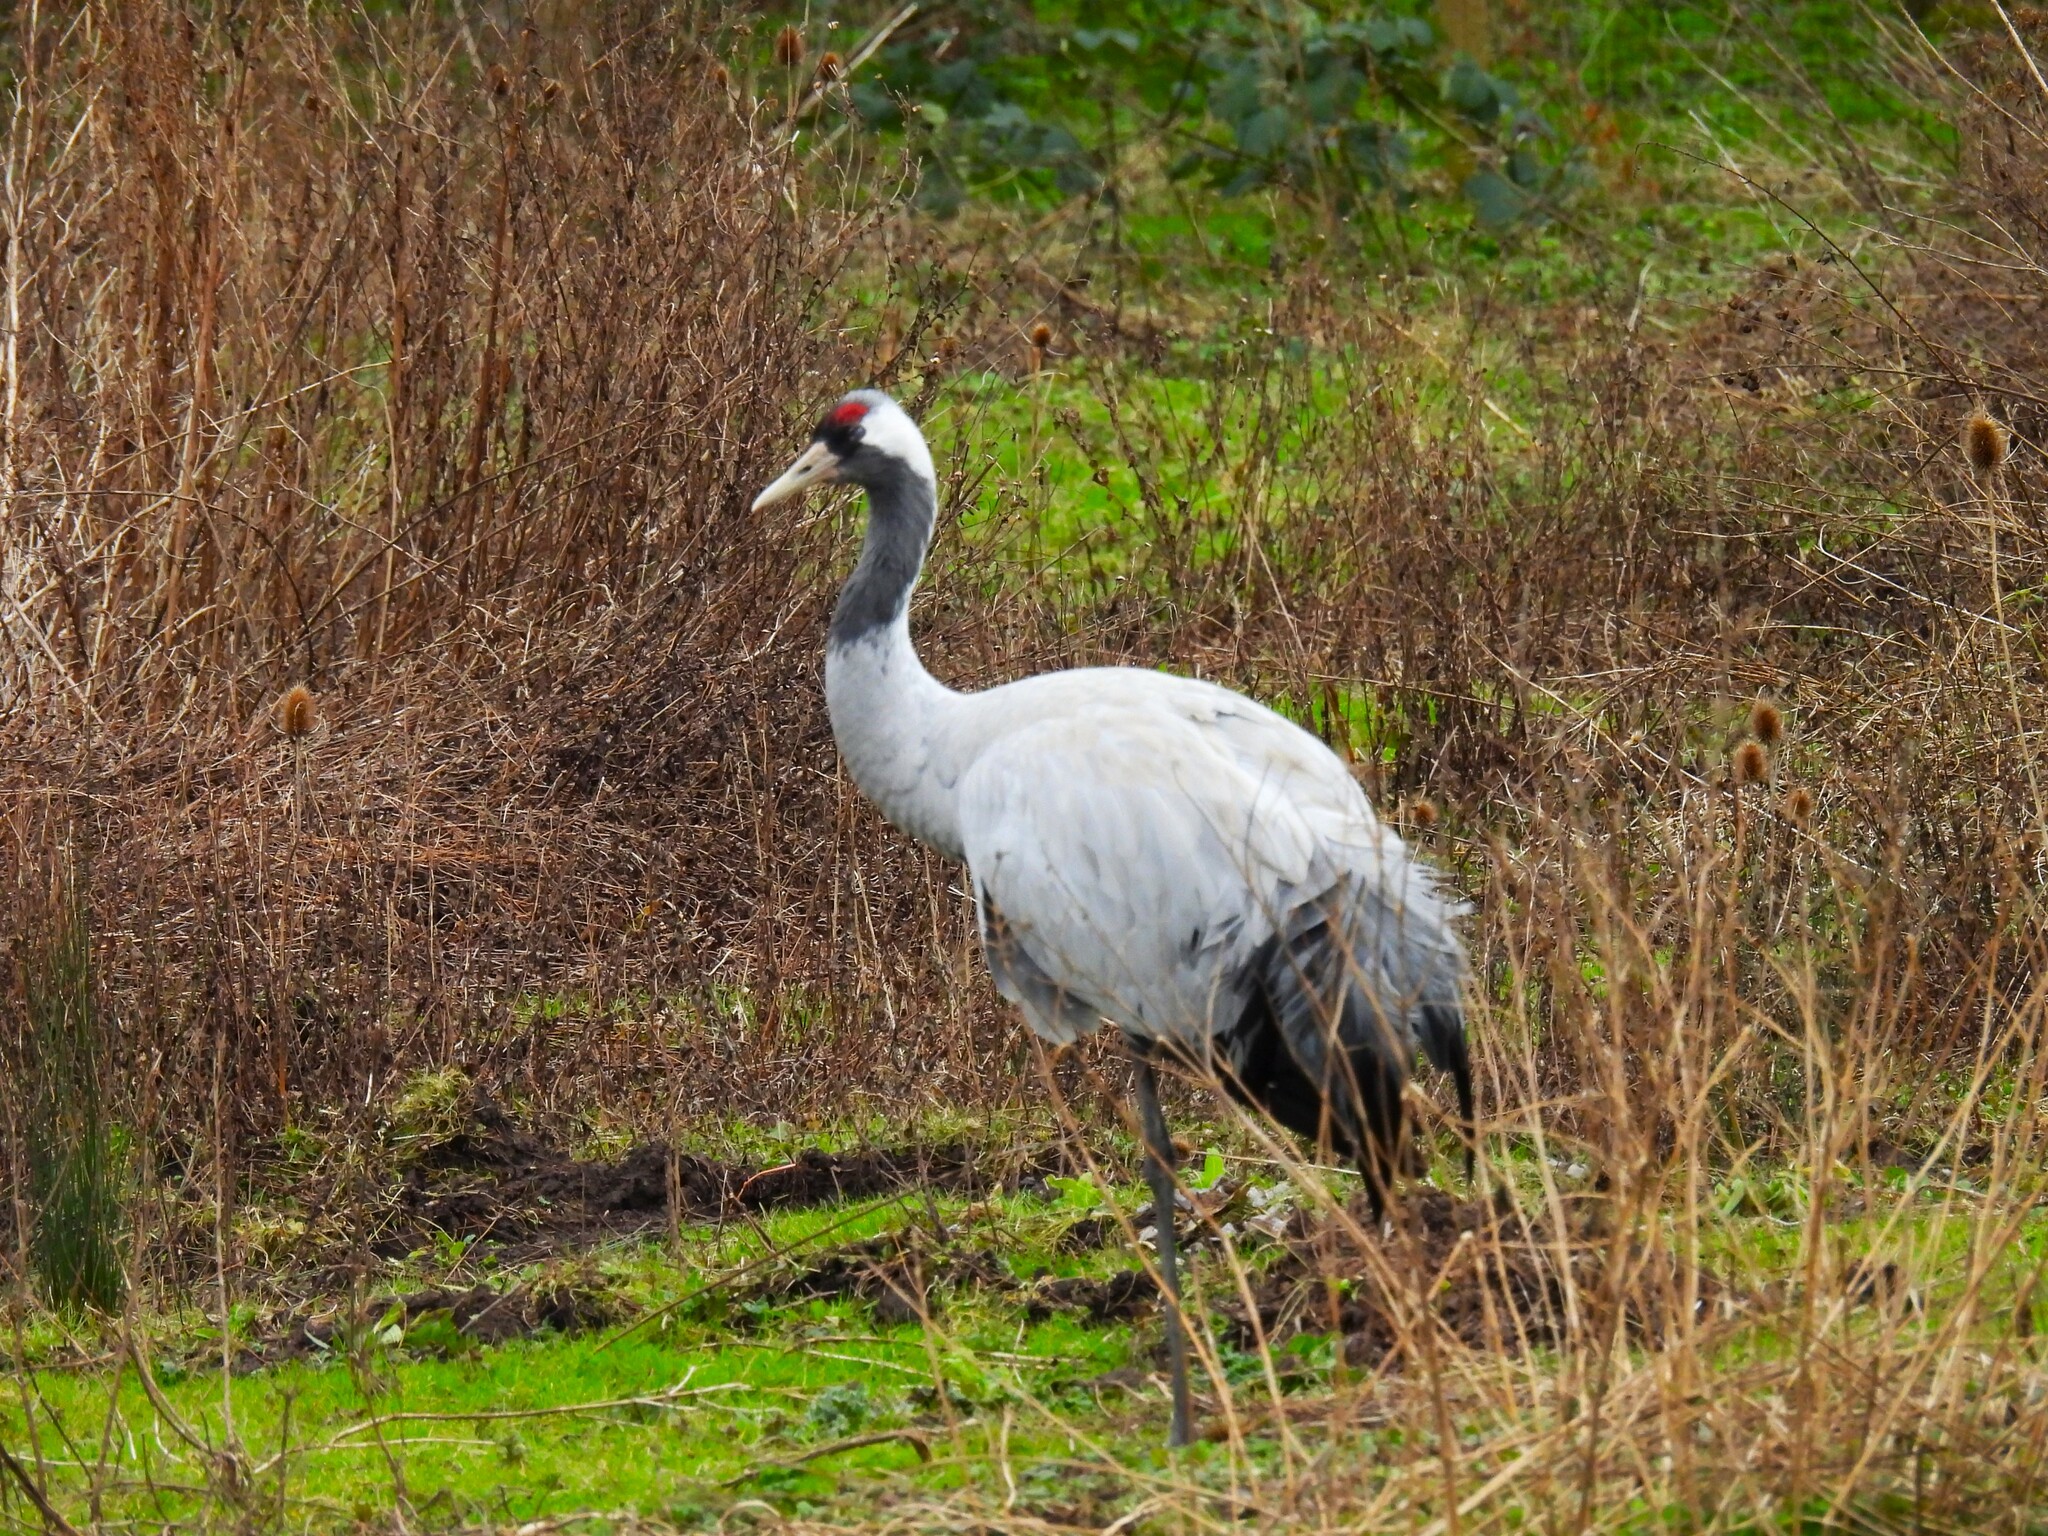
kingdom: Animalia
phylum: Chordata
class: Aves
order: Gruiformes
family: Gruidae
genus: Grus
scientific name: Grus grus
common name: Common crane
